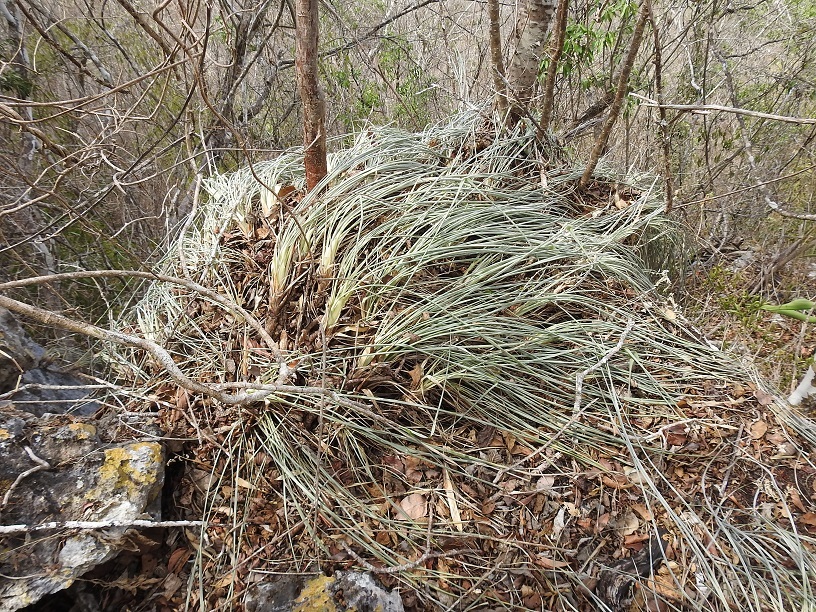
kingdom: Plantae
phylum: Tracheophyta
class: Liliopsida
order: Poales
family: Bromeliaceae
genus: Pitcairnia
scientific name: Pitcairnia breedlovei
